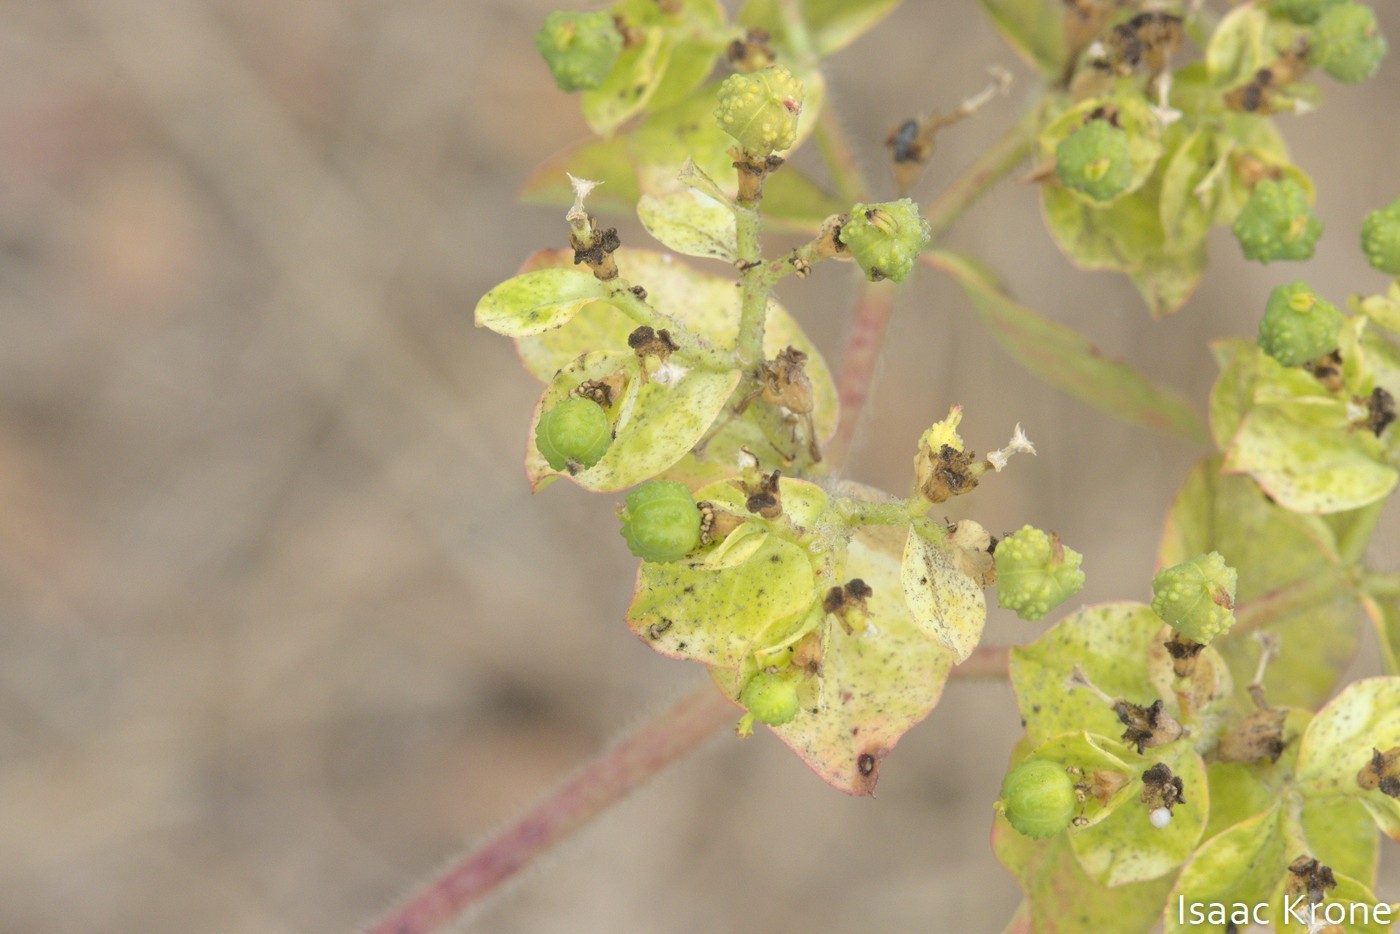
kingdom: Plantae
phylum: Tracheophyta
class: Magnoliopsida
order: Malpighiales
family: Euphorbiaceae
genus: Euphorbia
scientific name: Euphorbia oblongata
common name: Balkan spurge
